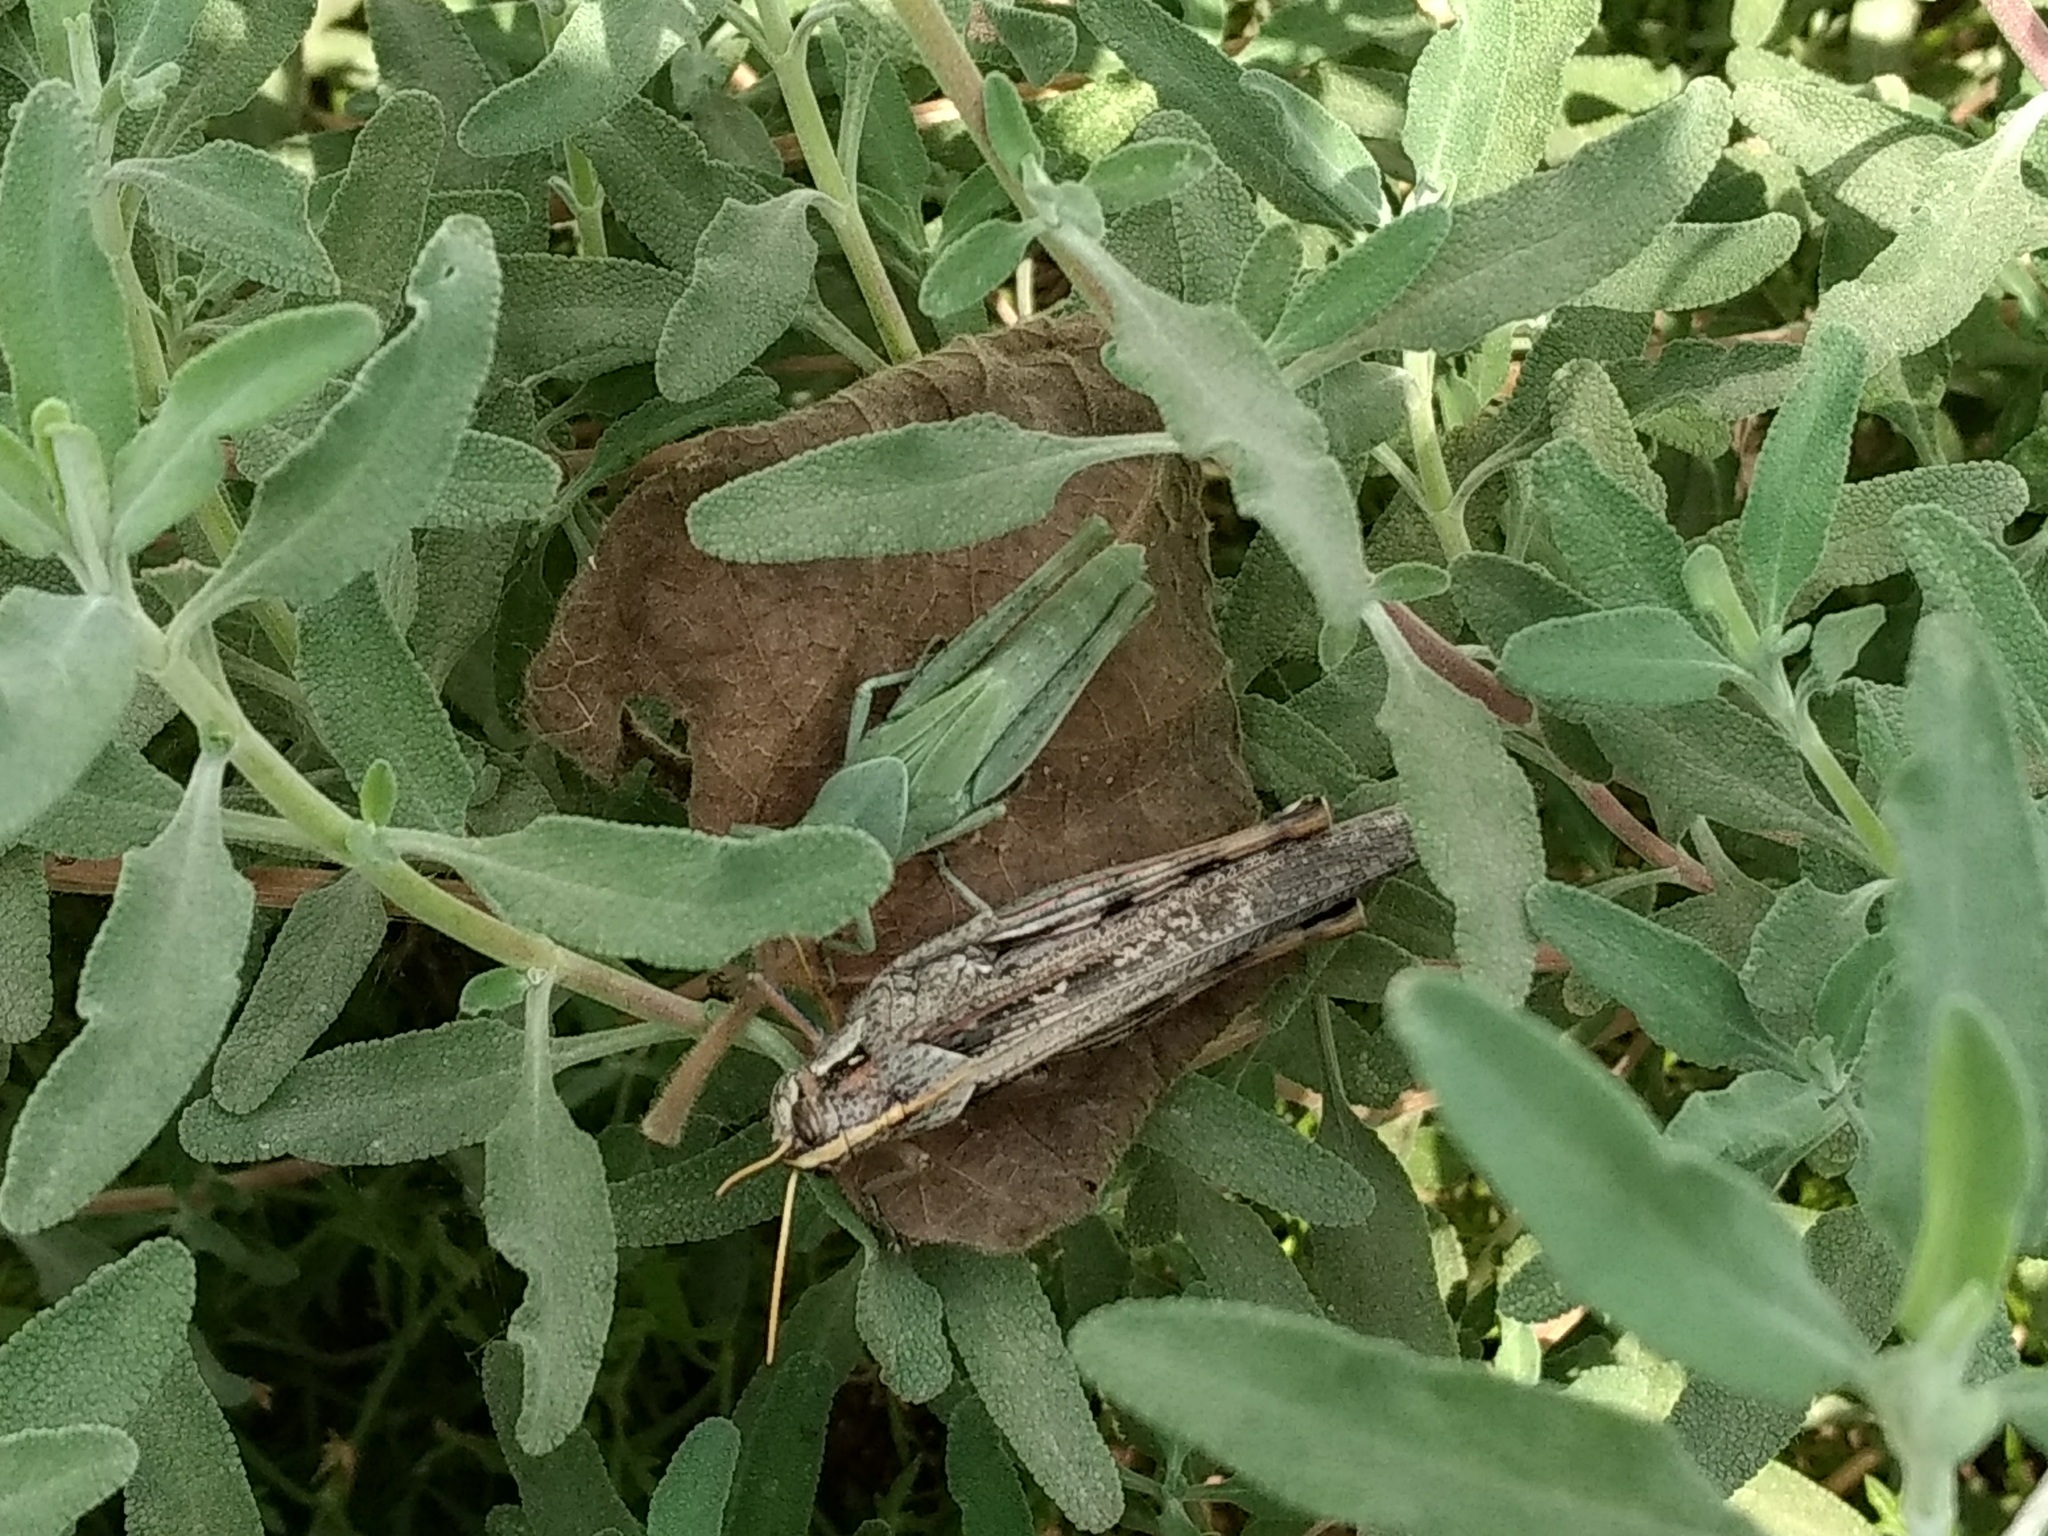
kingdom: Animalia
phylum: Arthropoda
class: Insecta
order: Orthoptera
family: Acrididae
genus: Schistocerca
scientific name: Schistocerca nitens
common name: Vagrant grasshopper
